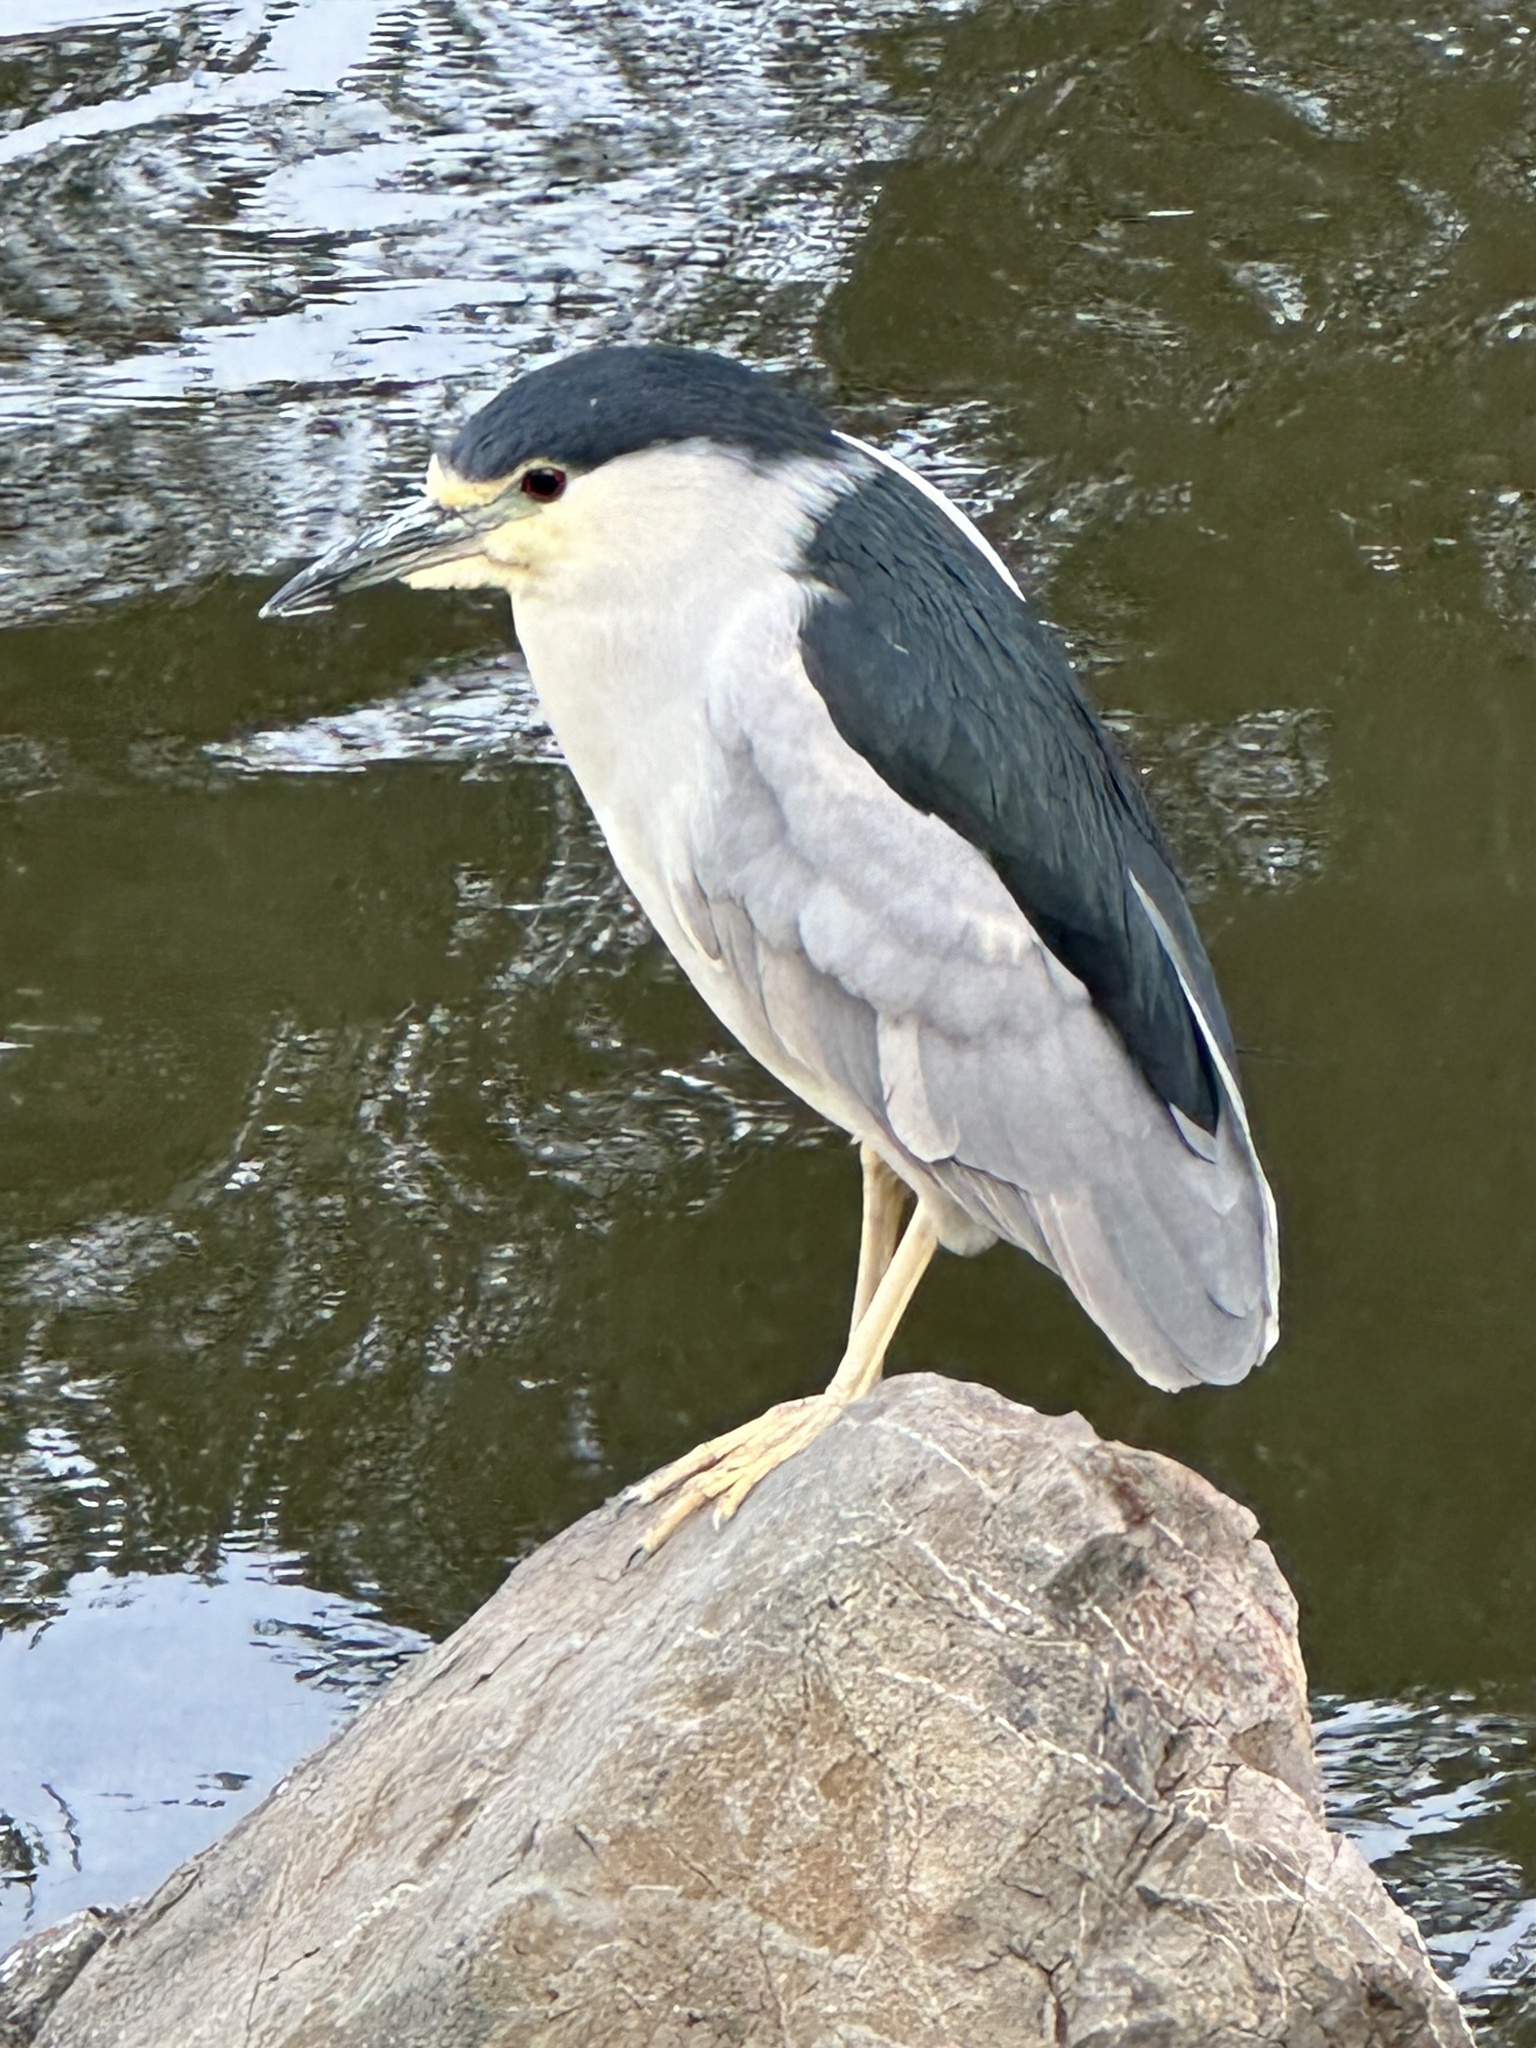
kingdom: Animalia
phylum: Chordata
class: Aves
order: Pelecaniformes
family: Ardeidae
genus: Nycticorax
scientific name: Nycticorax nycticorax
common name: Black-crowned night heron
